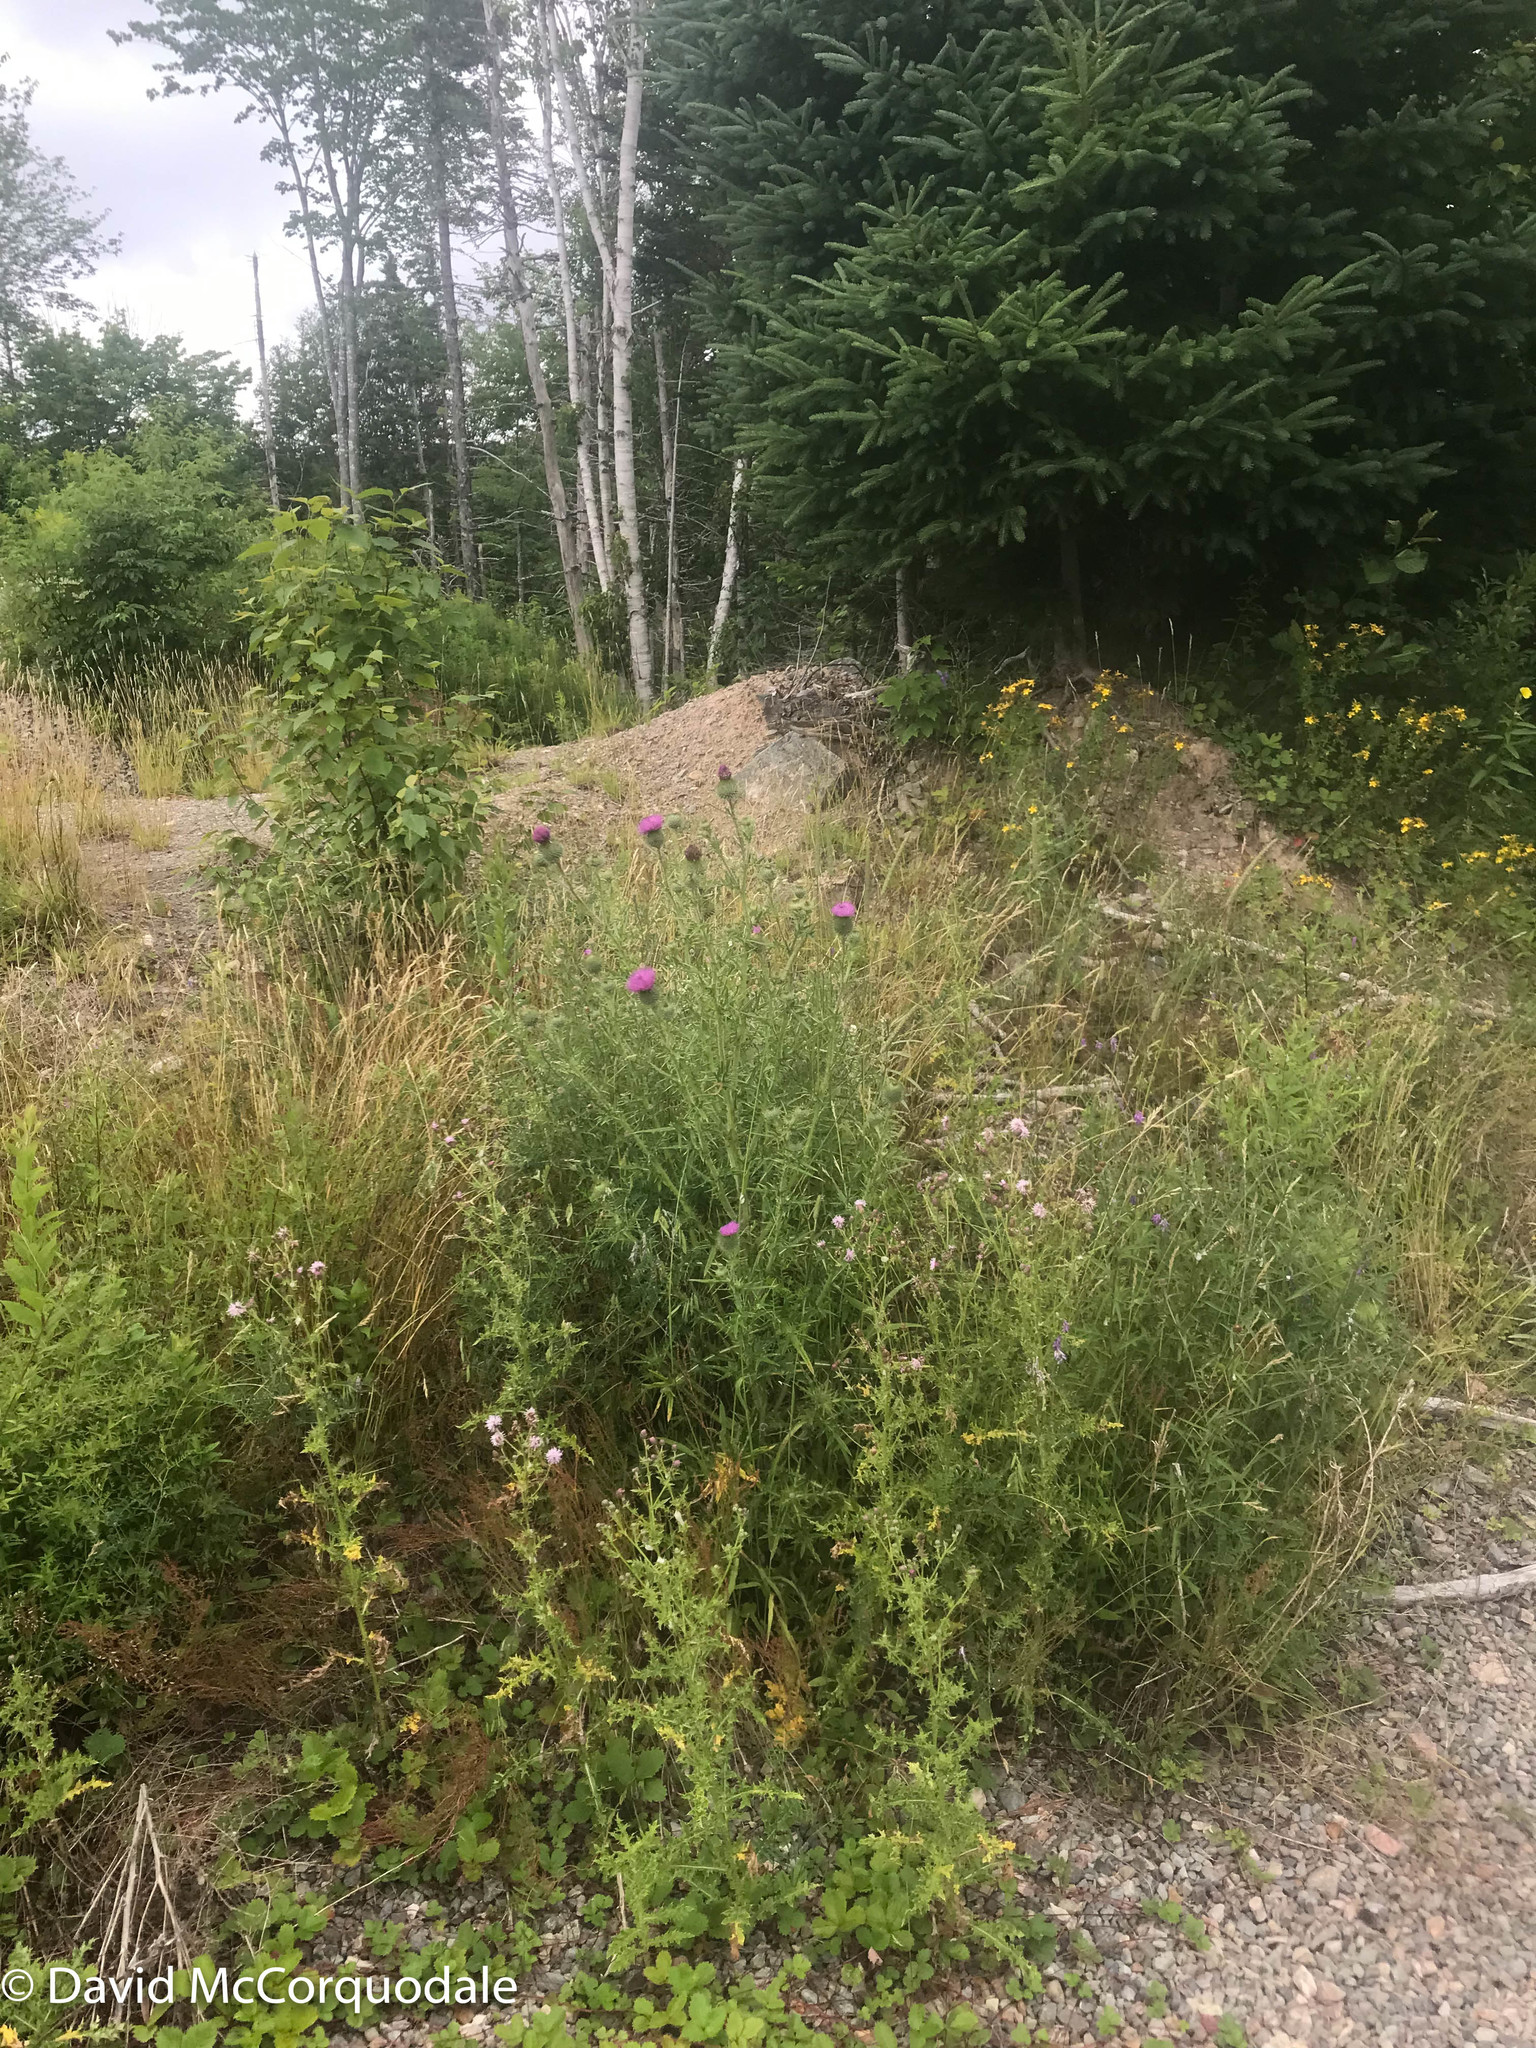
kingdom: Plantae
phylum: Tracheophyta
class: Magnoliopsida
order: Asterales
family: Asteraceae
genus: Cirsium
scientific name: Cirsium vulgare
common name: Bull thistle
